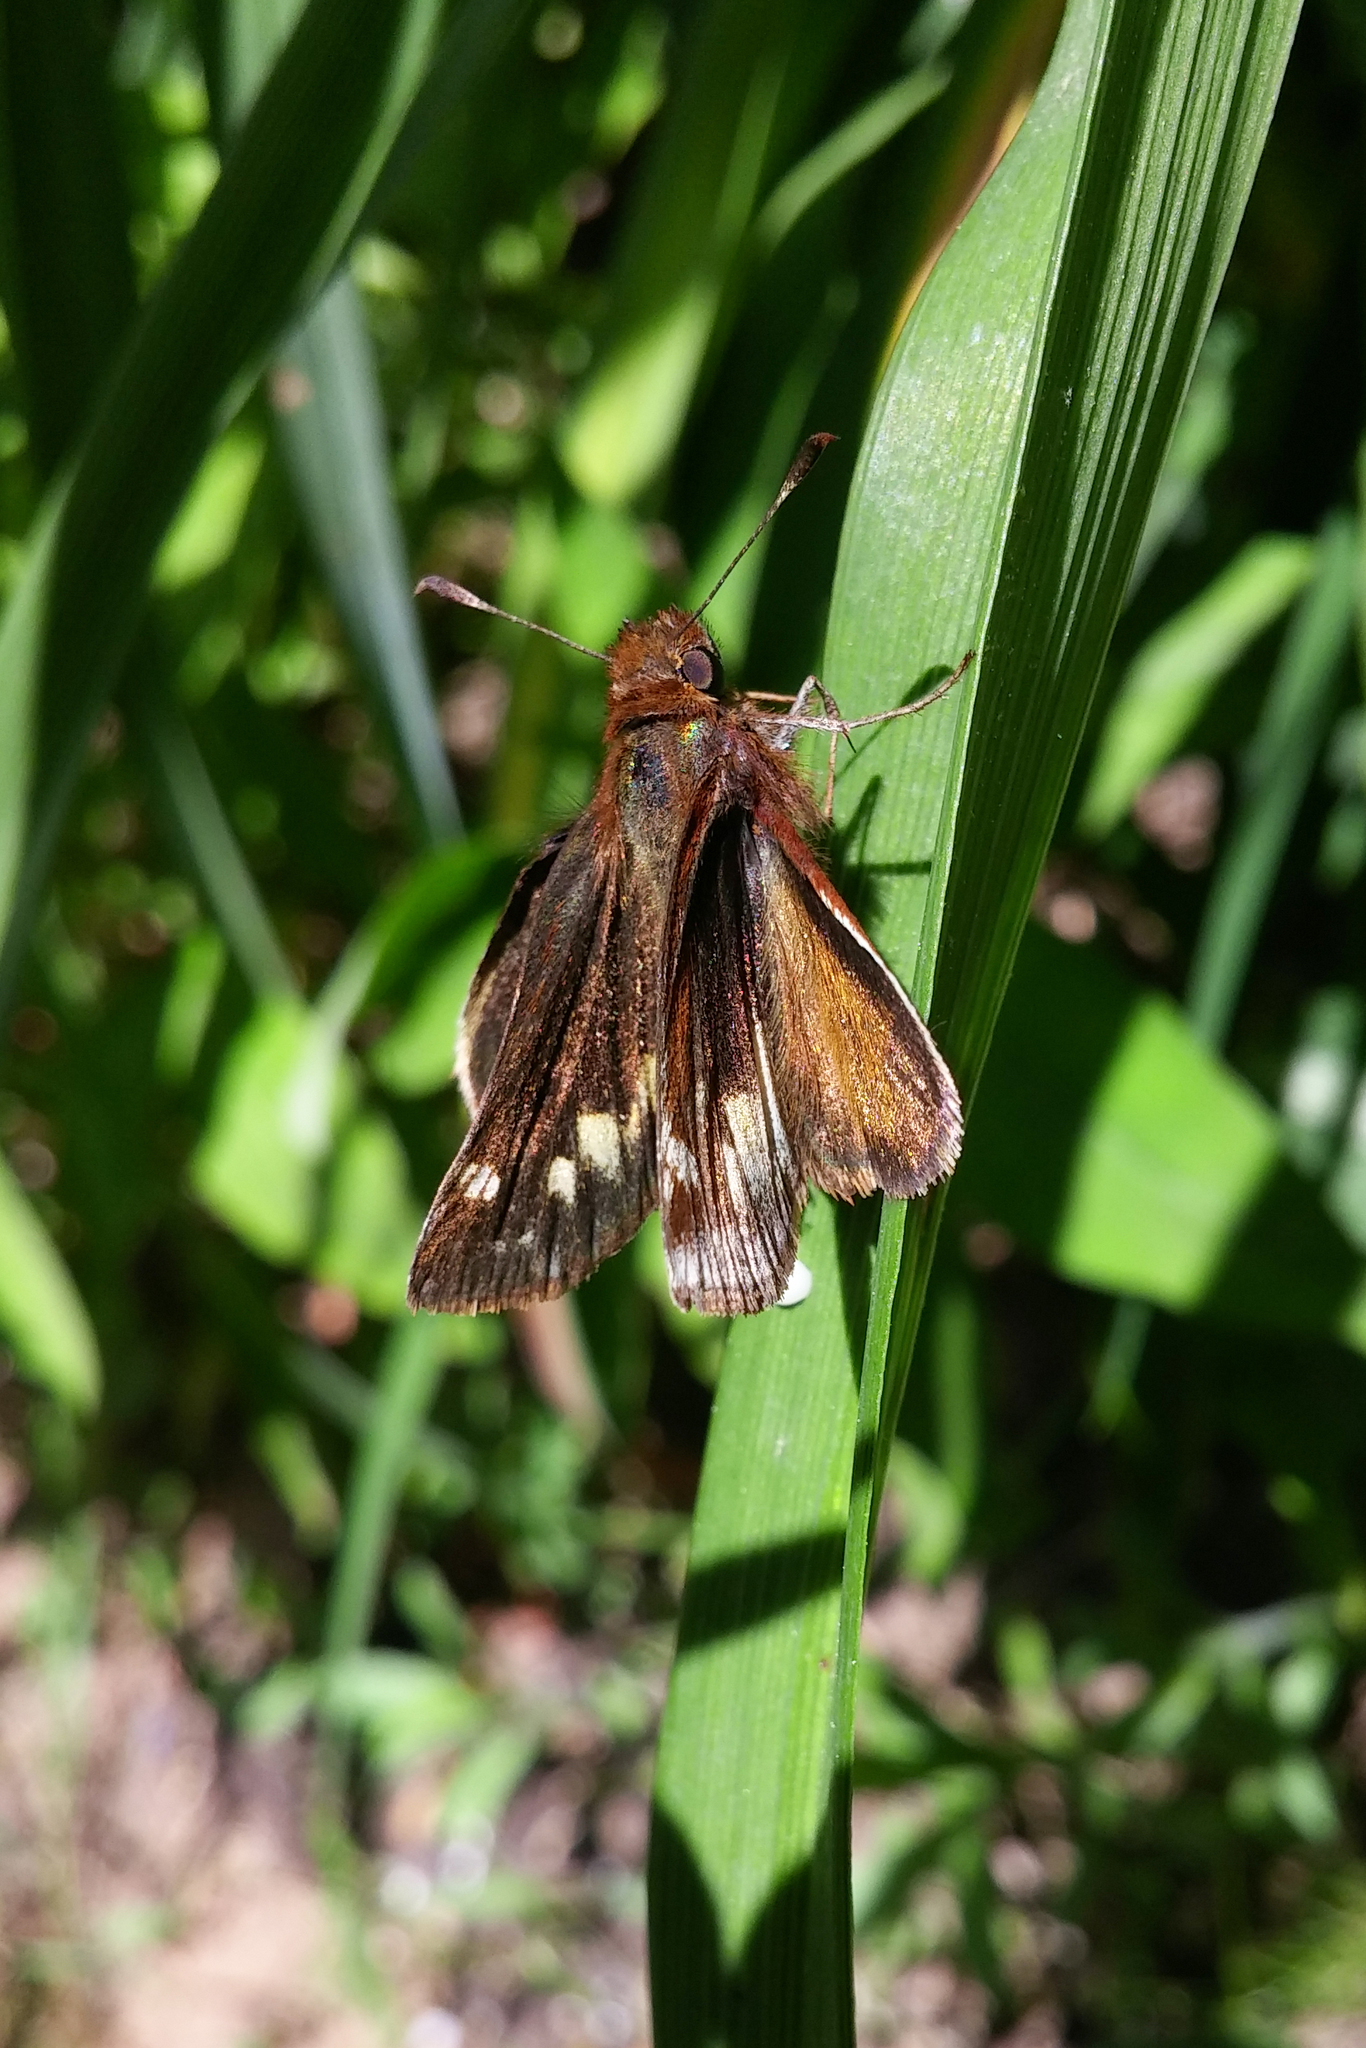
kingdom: Animalia
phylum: Arthropoda
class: Insecta
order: Lepidoptera
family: Hesperiidae
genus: Lon
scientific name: Lon zabulon
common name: Zabulon skipper
